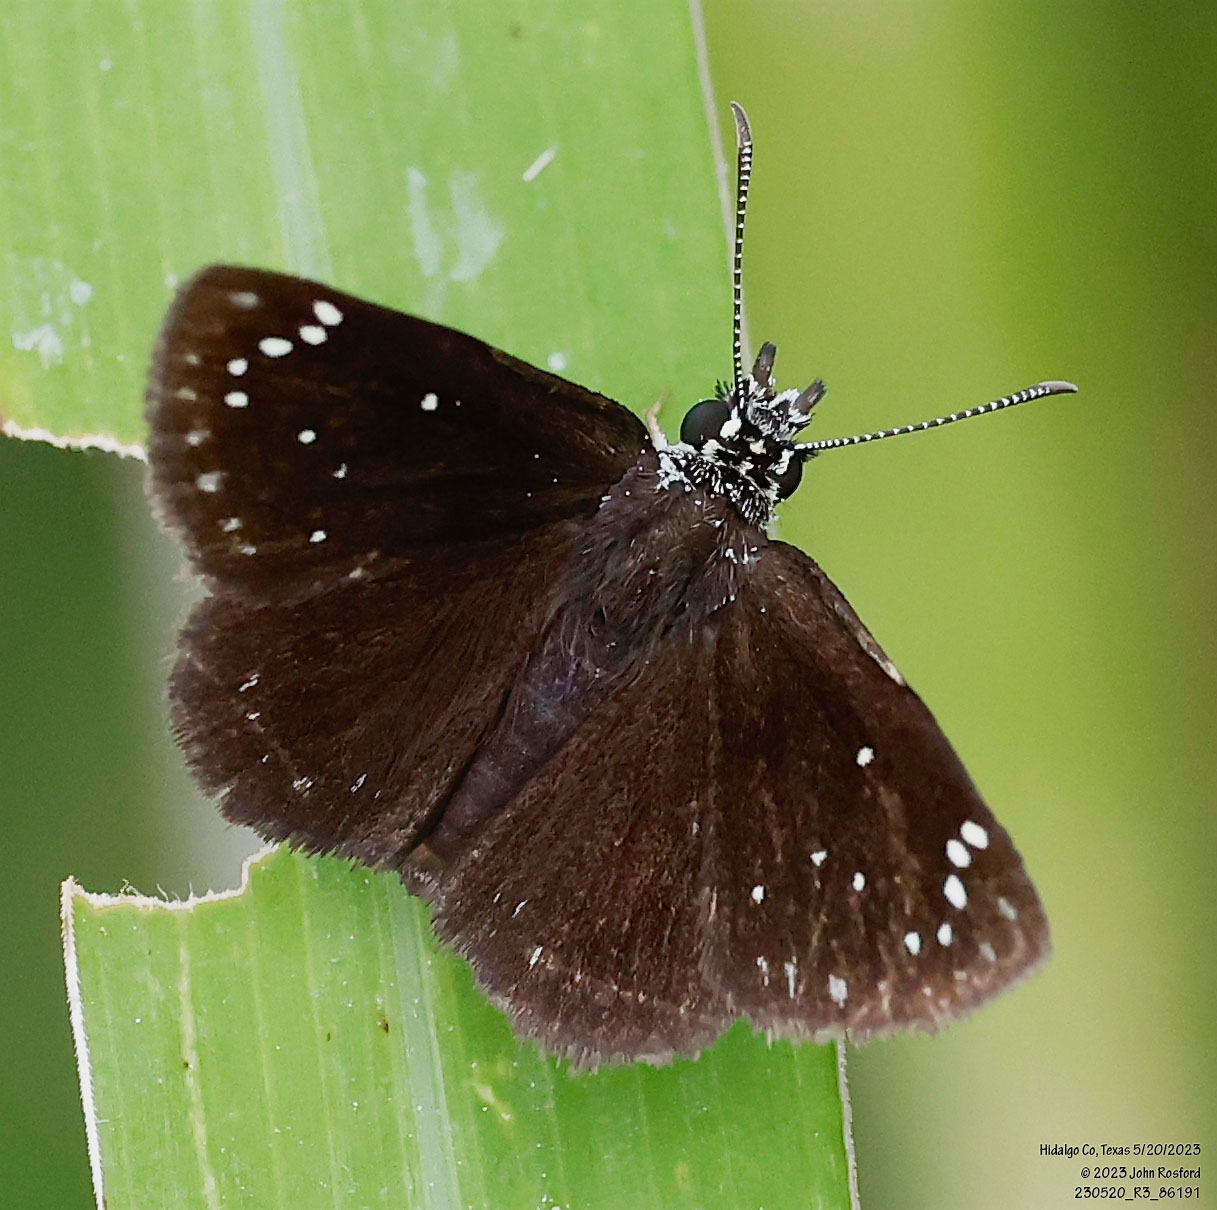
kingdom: Animalia
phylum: Arthropoda
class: Insecta
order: Lepidoptera
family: Hesperiidae
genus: Pholisora
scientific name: Pholisora catullus
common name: Common sootywing
